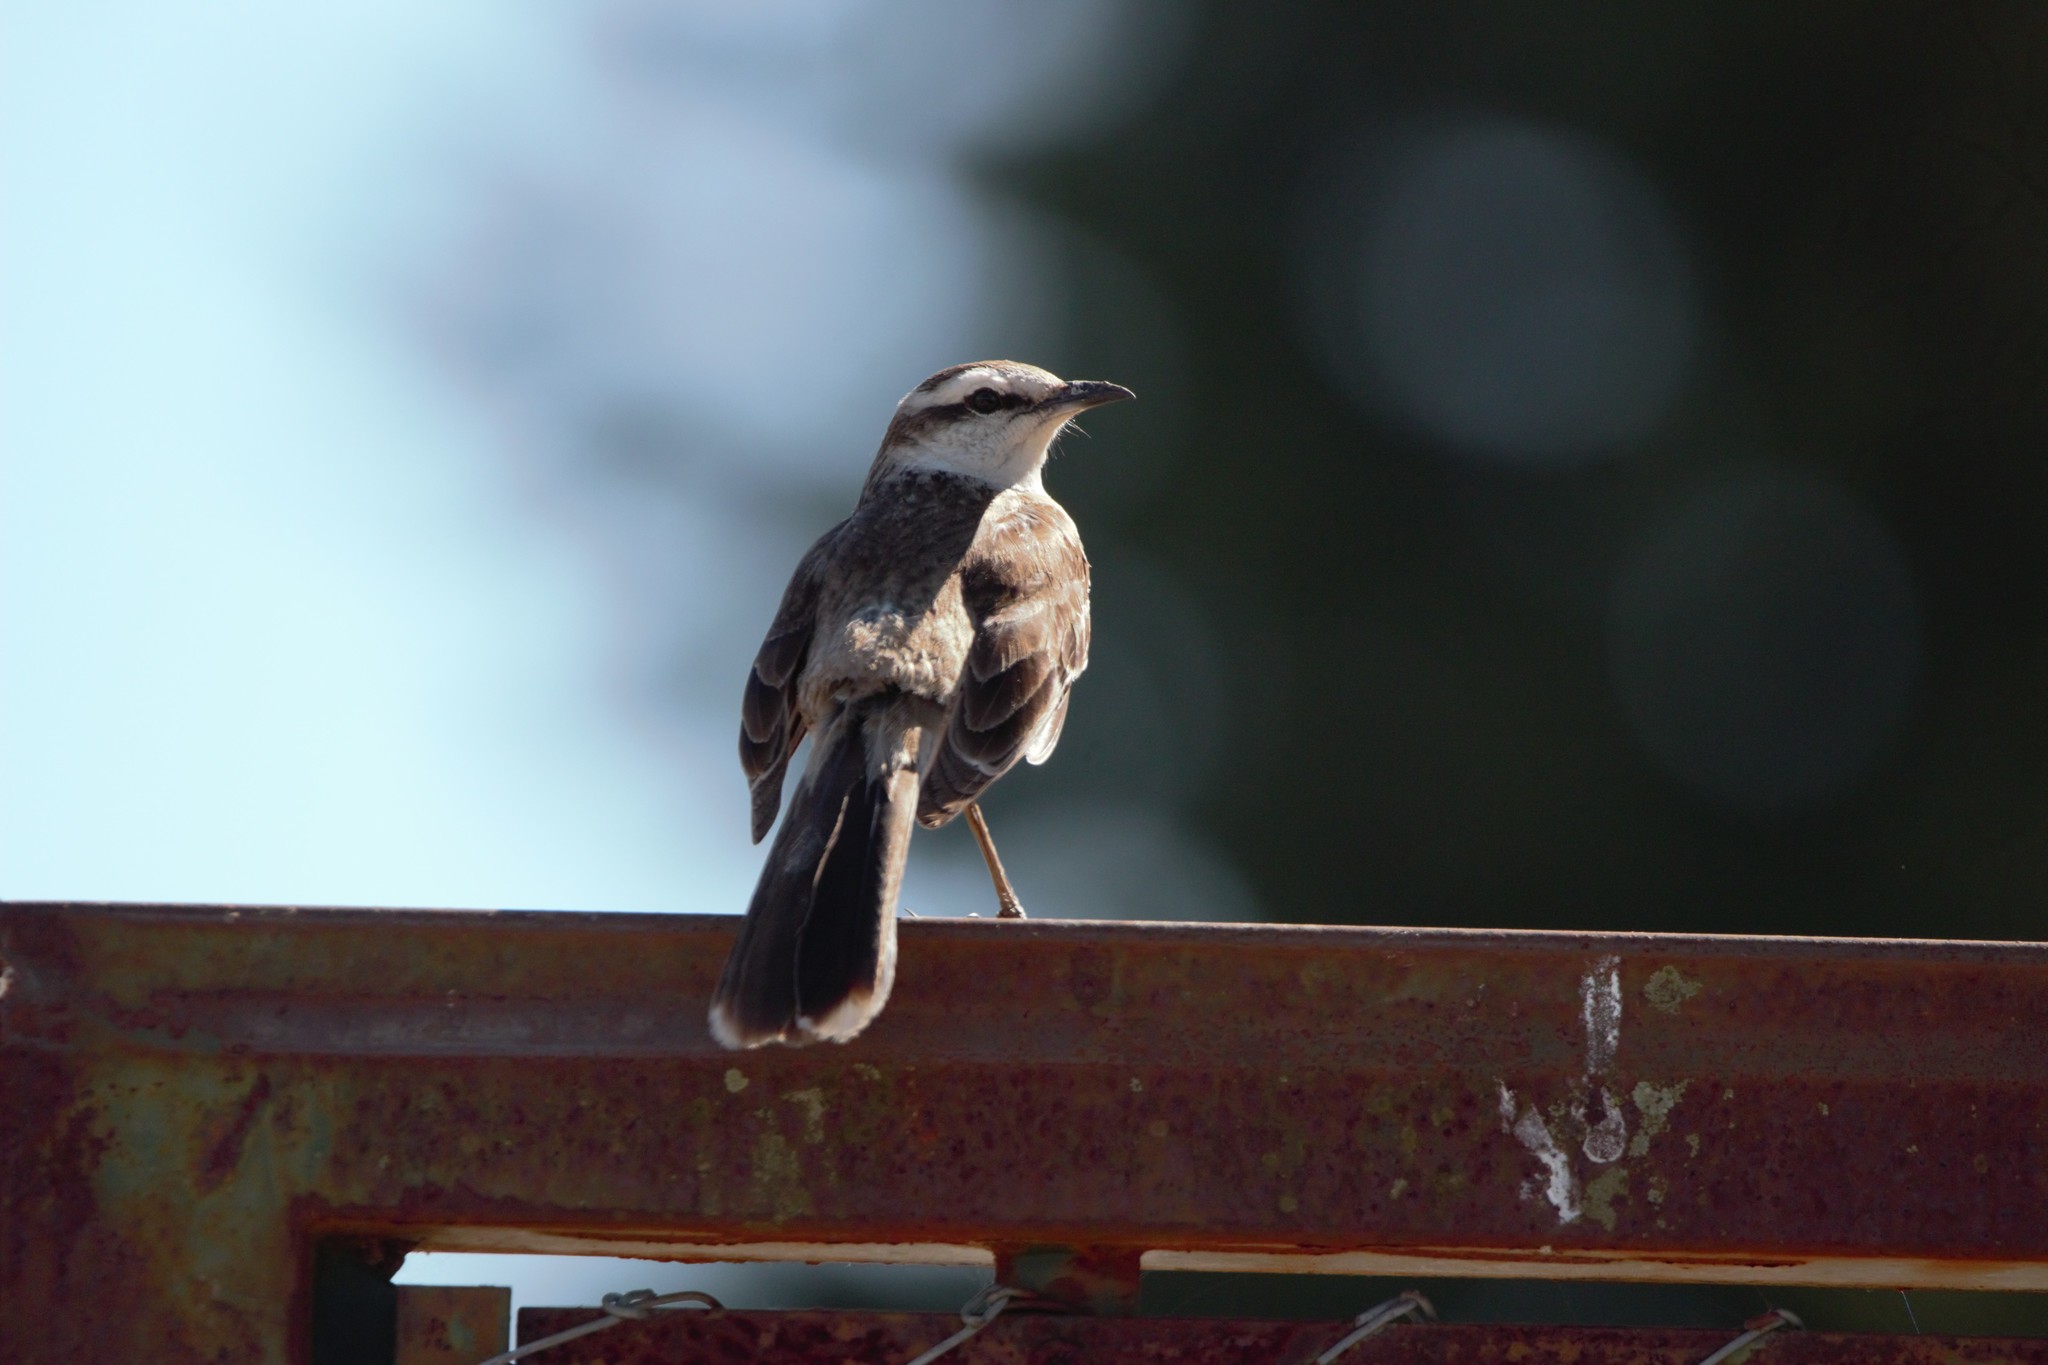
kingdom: Animalia
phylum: Chordata
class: Aves
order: Passeriformes
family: Mimidae
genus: Mimus
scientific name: Mimus saturninus
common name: Chalk-browed mockingbird
